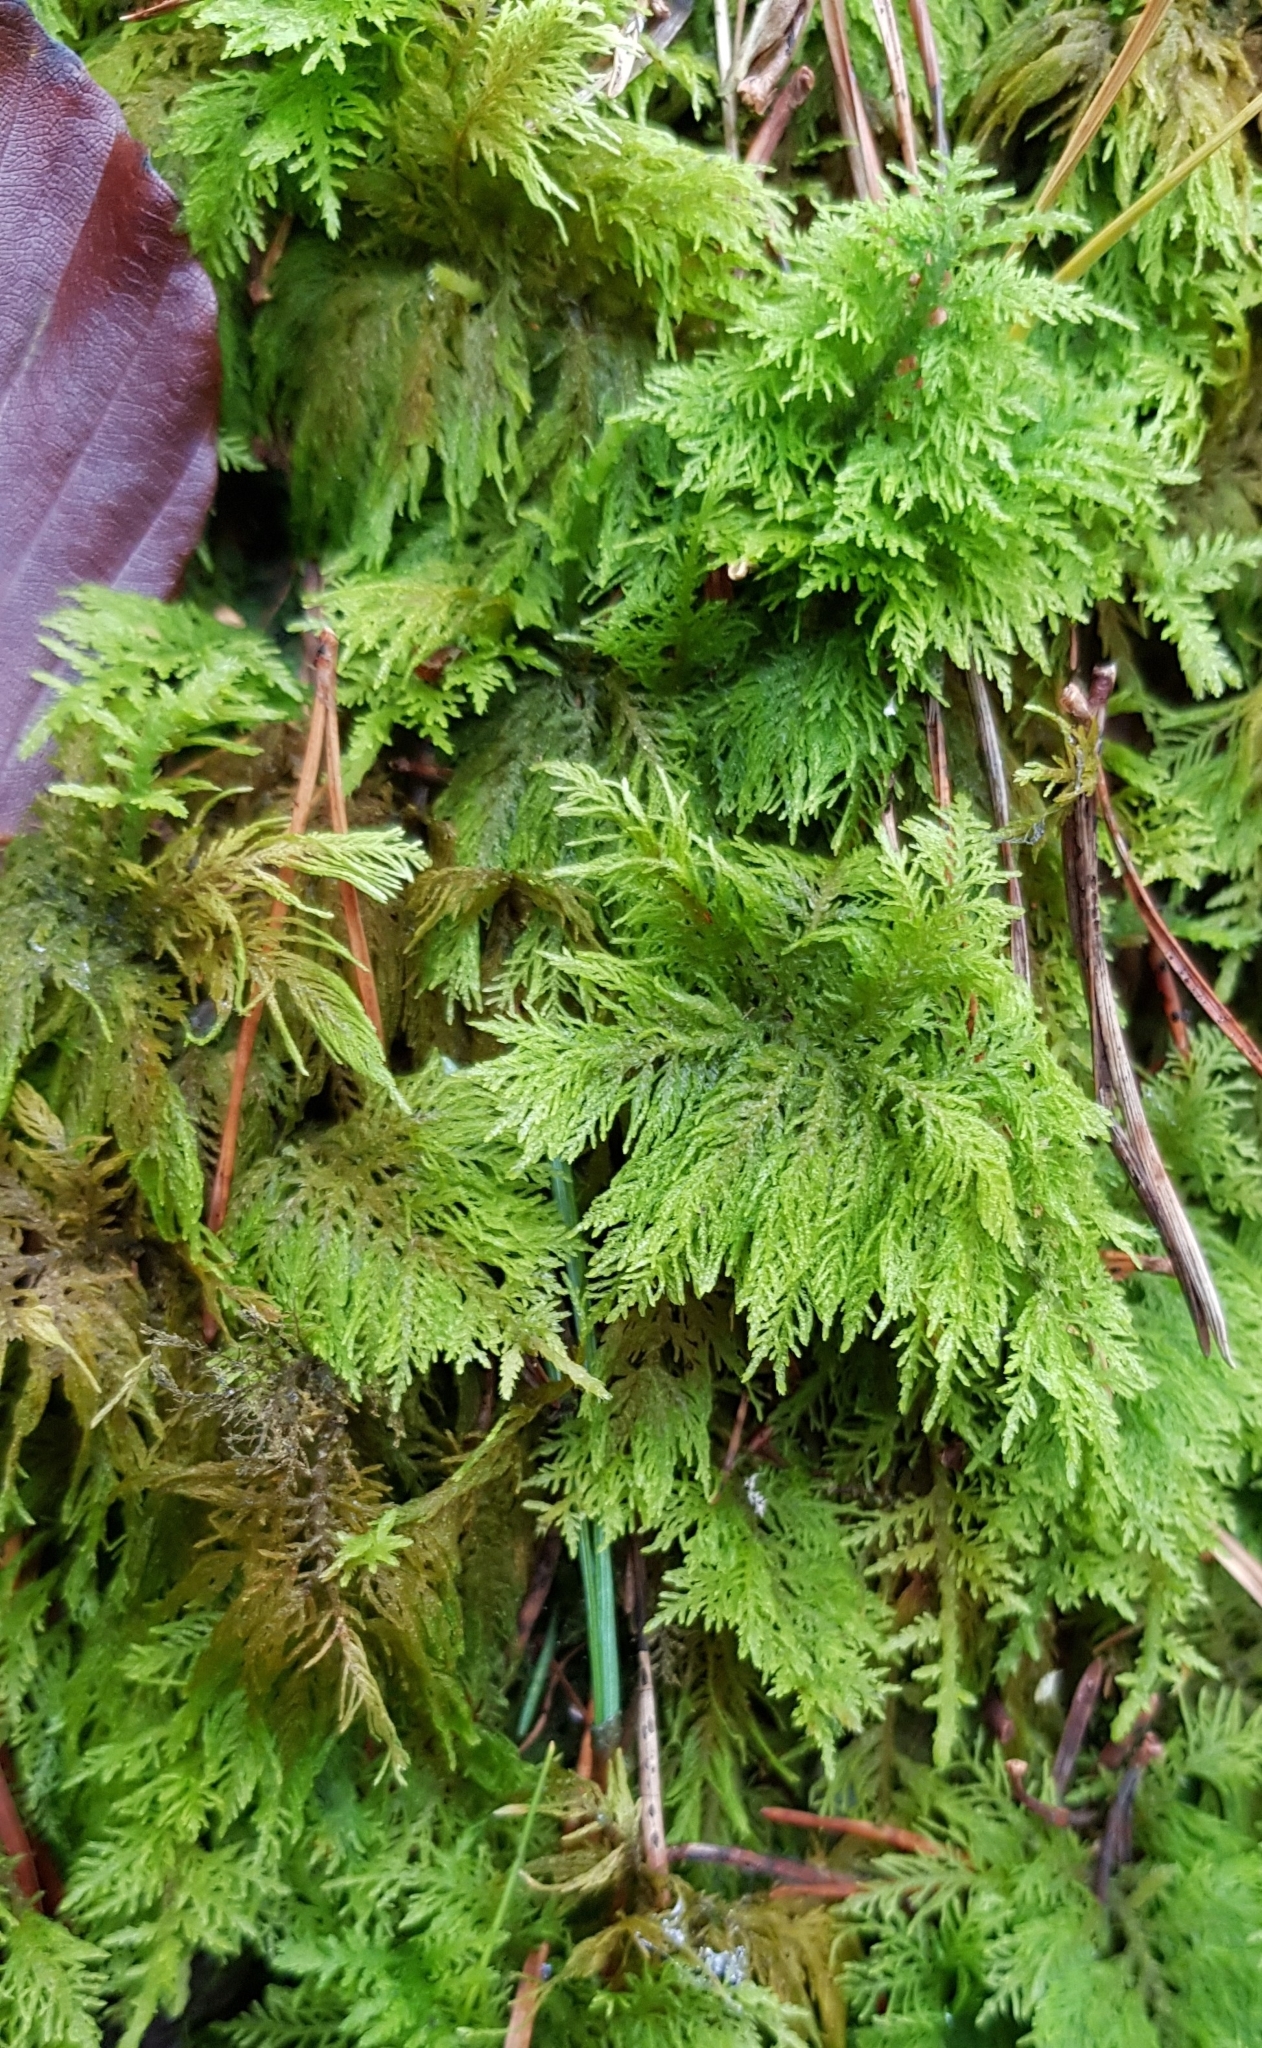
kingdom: Plantae
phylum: Bryophyta
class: Bryopsida
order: Hypnales
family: Thuidiaceae
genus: Thuidium
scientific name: Thuidium tamariscinum
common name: Common tamarisk-moss
